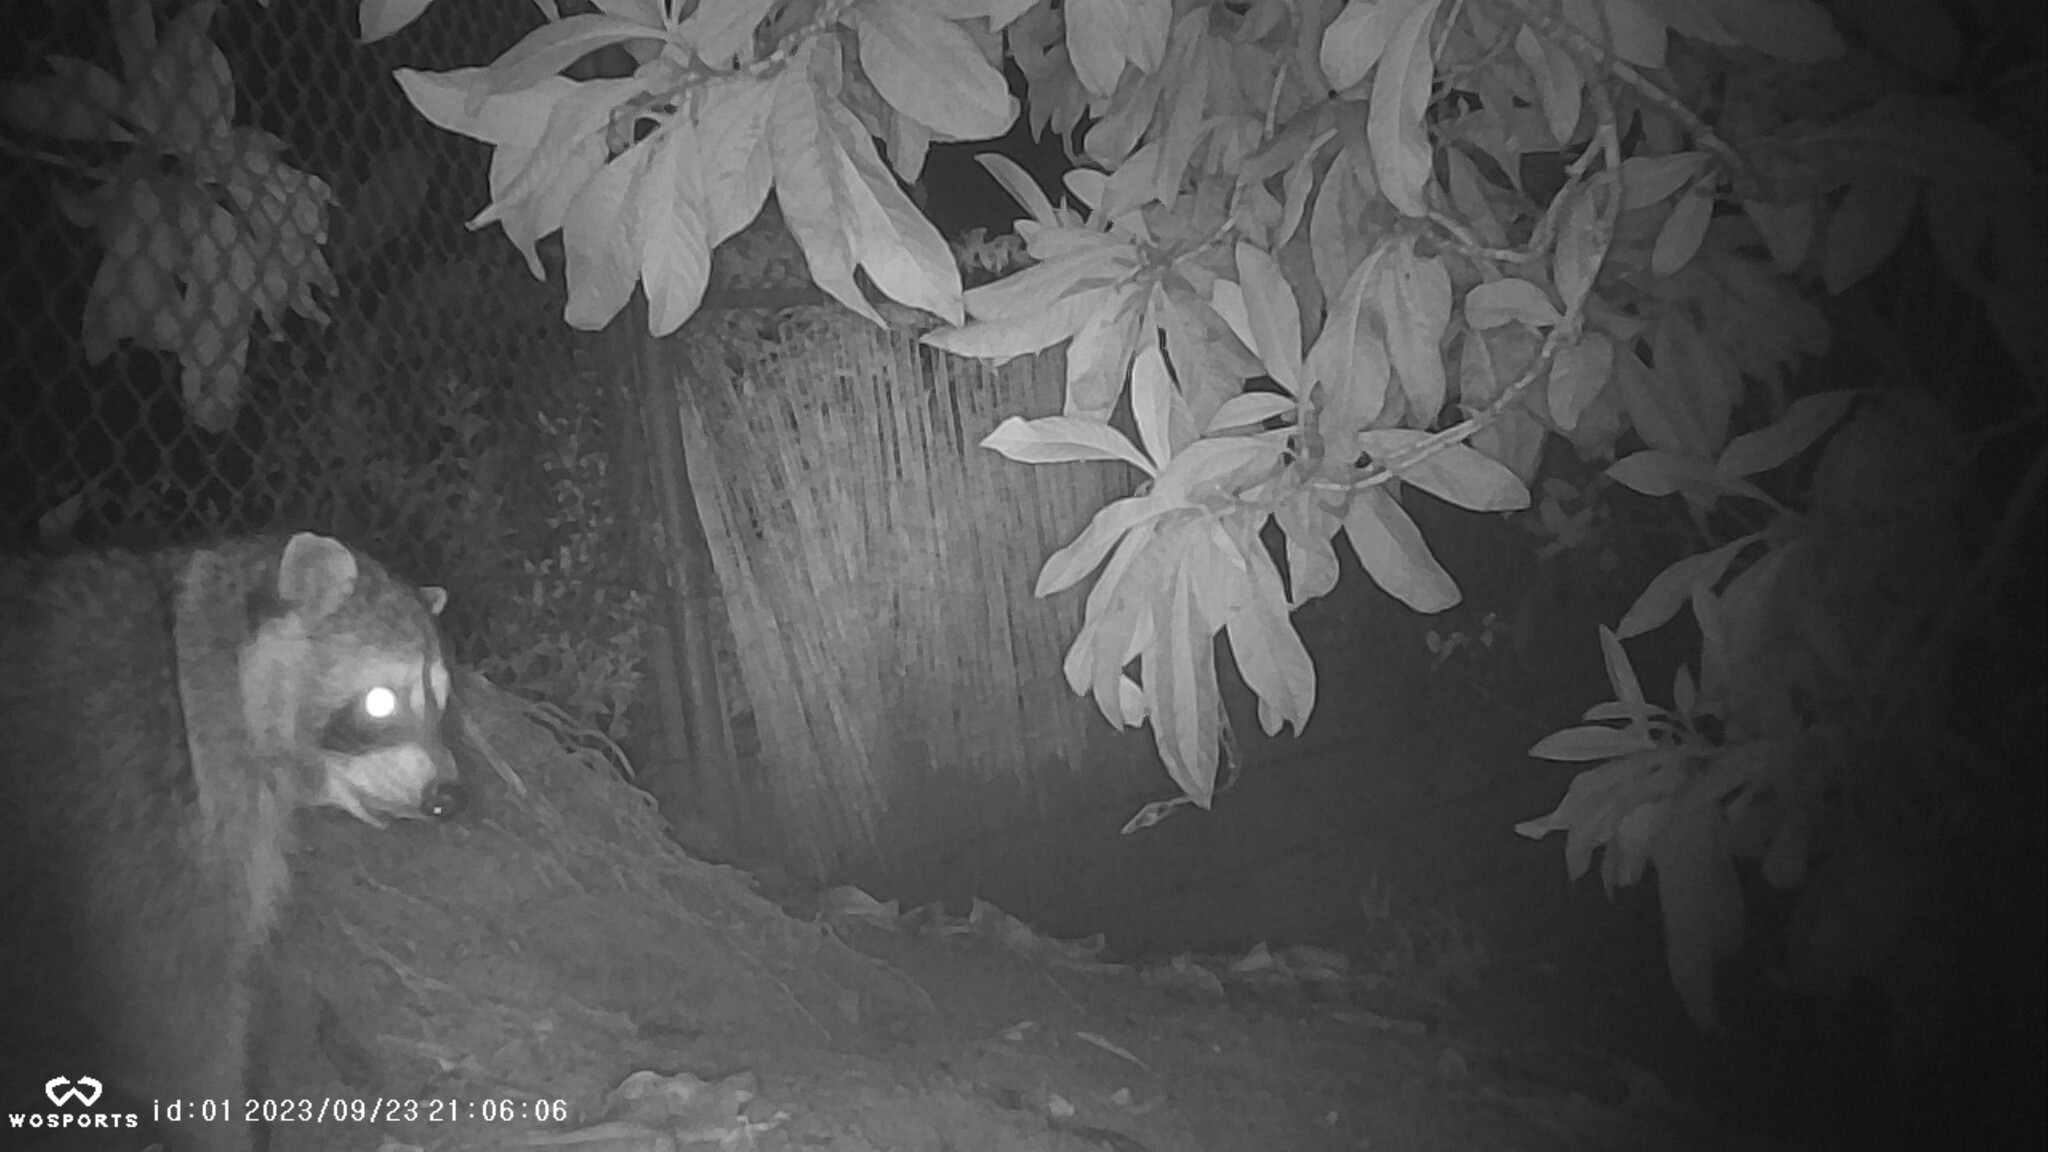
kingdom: Animalia
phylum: Chordata
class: Mammalia
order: Carnivora
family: Procyonidae
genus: Procyon
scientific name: Procyon lotor
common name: Raccoon
